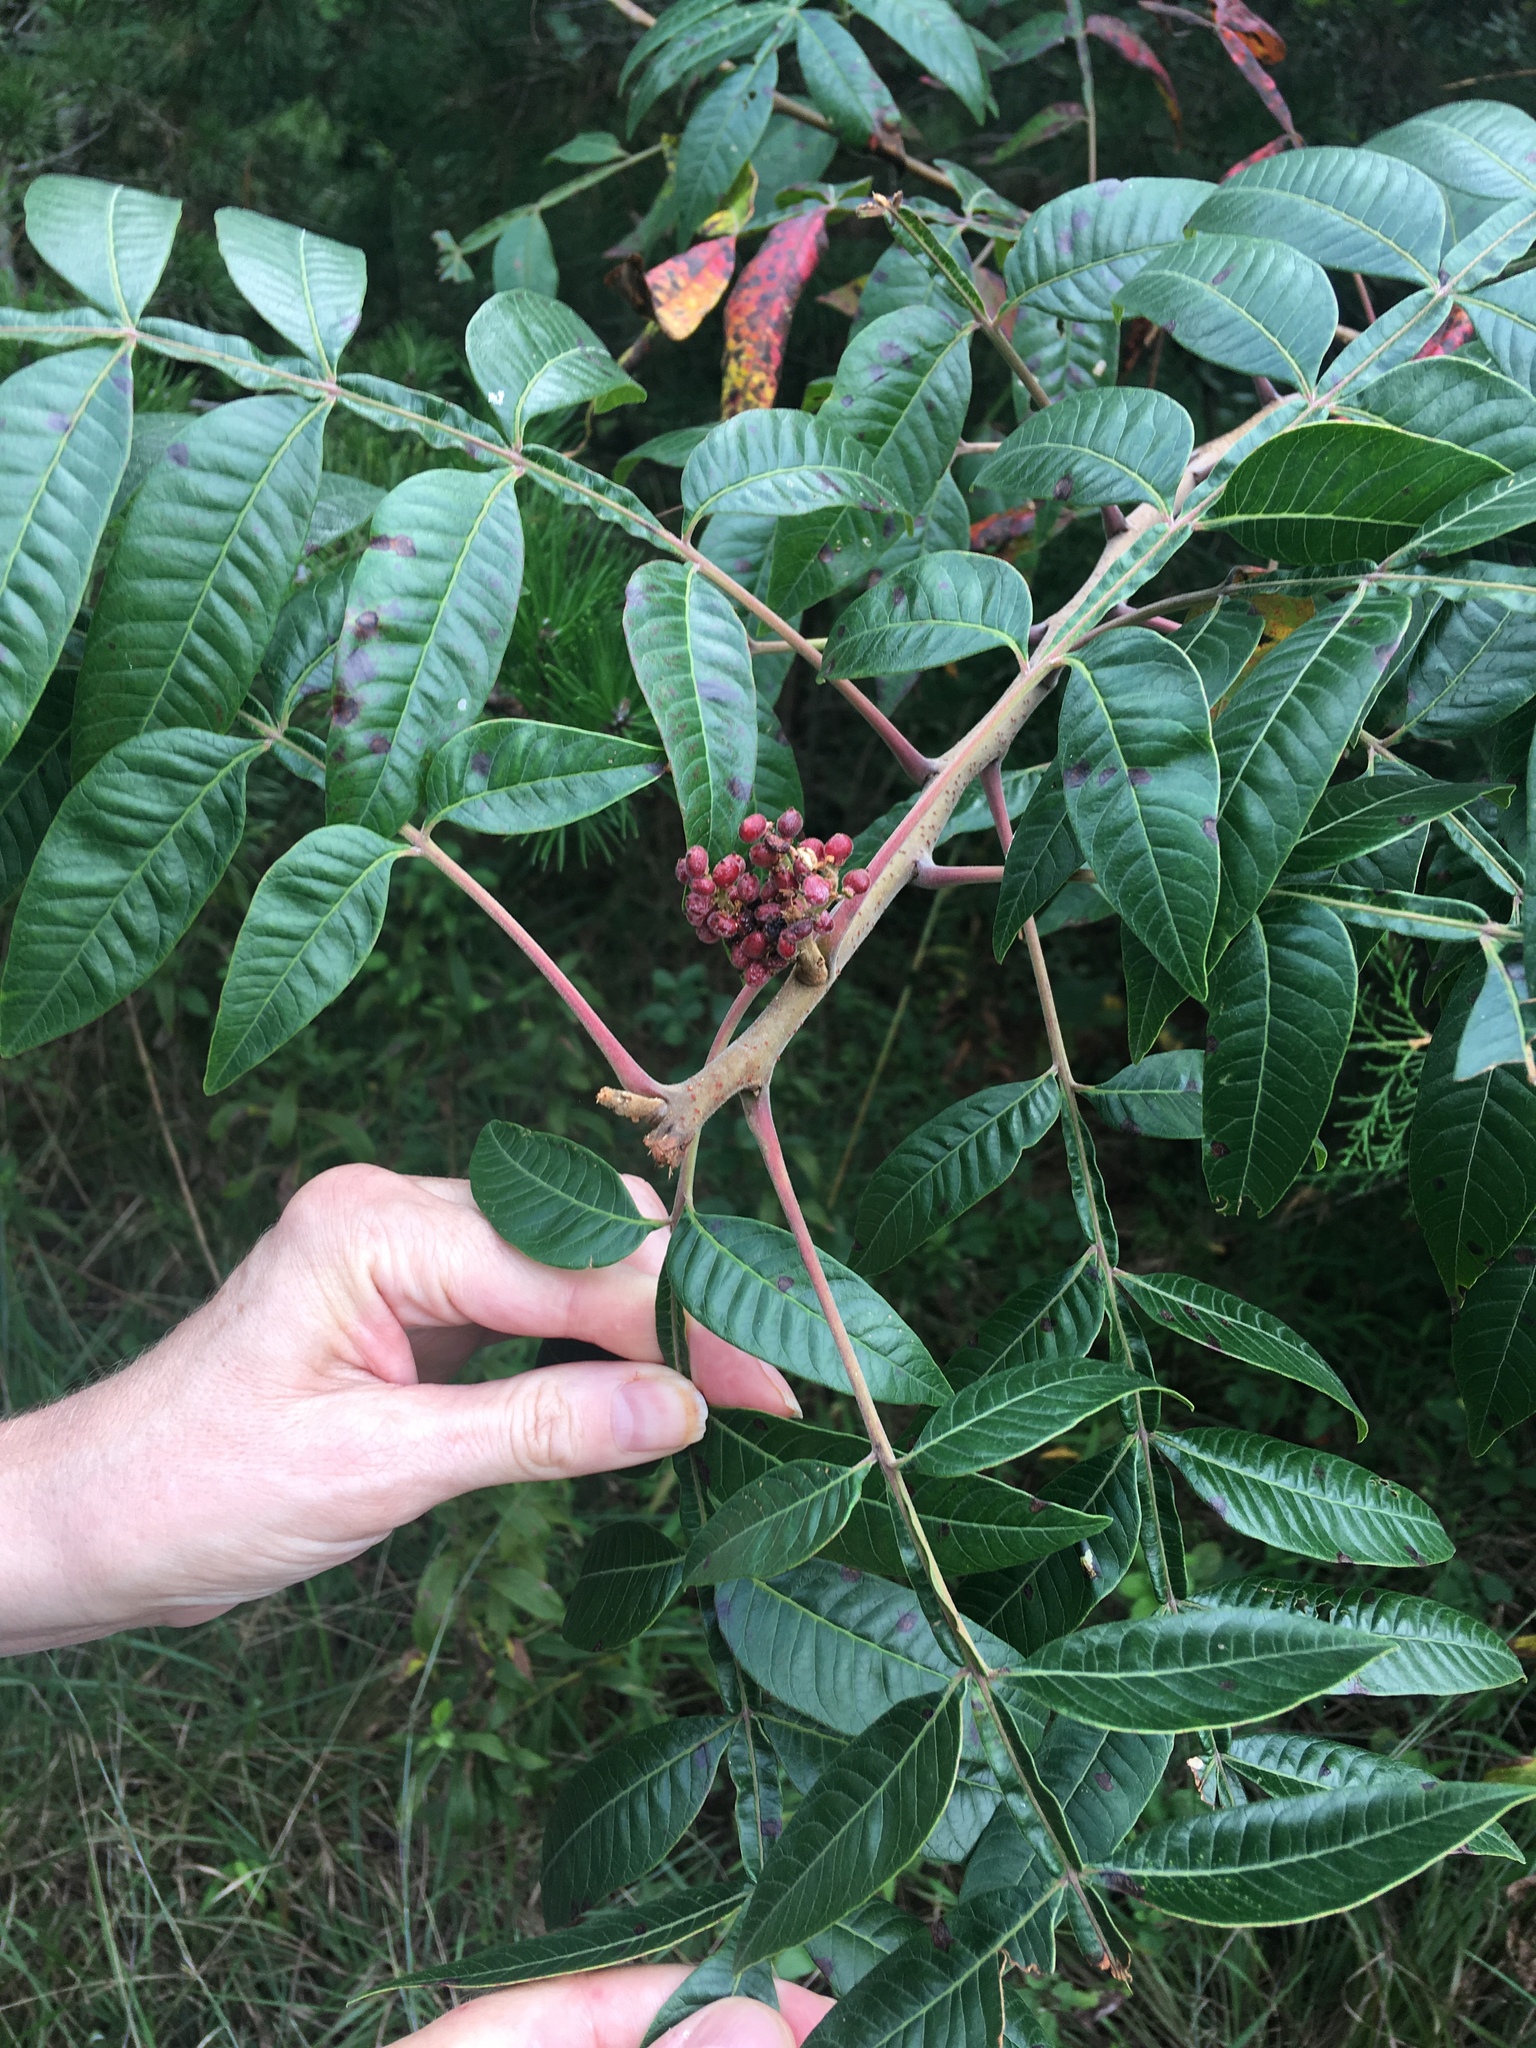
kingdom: Plantae
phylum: Tracheophyta
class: Magnoliopsida
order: Sapindales
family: Anacardiaceae
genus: Rhus
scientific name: Rhus copallina
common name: Shining sumac
